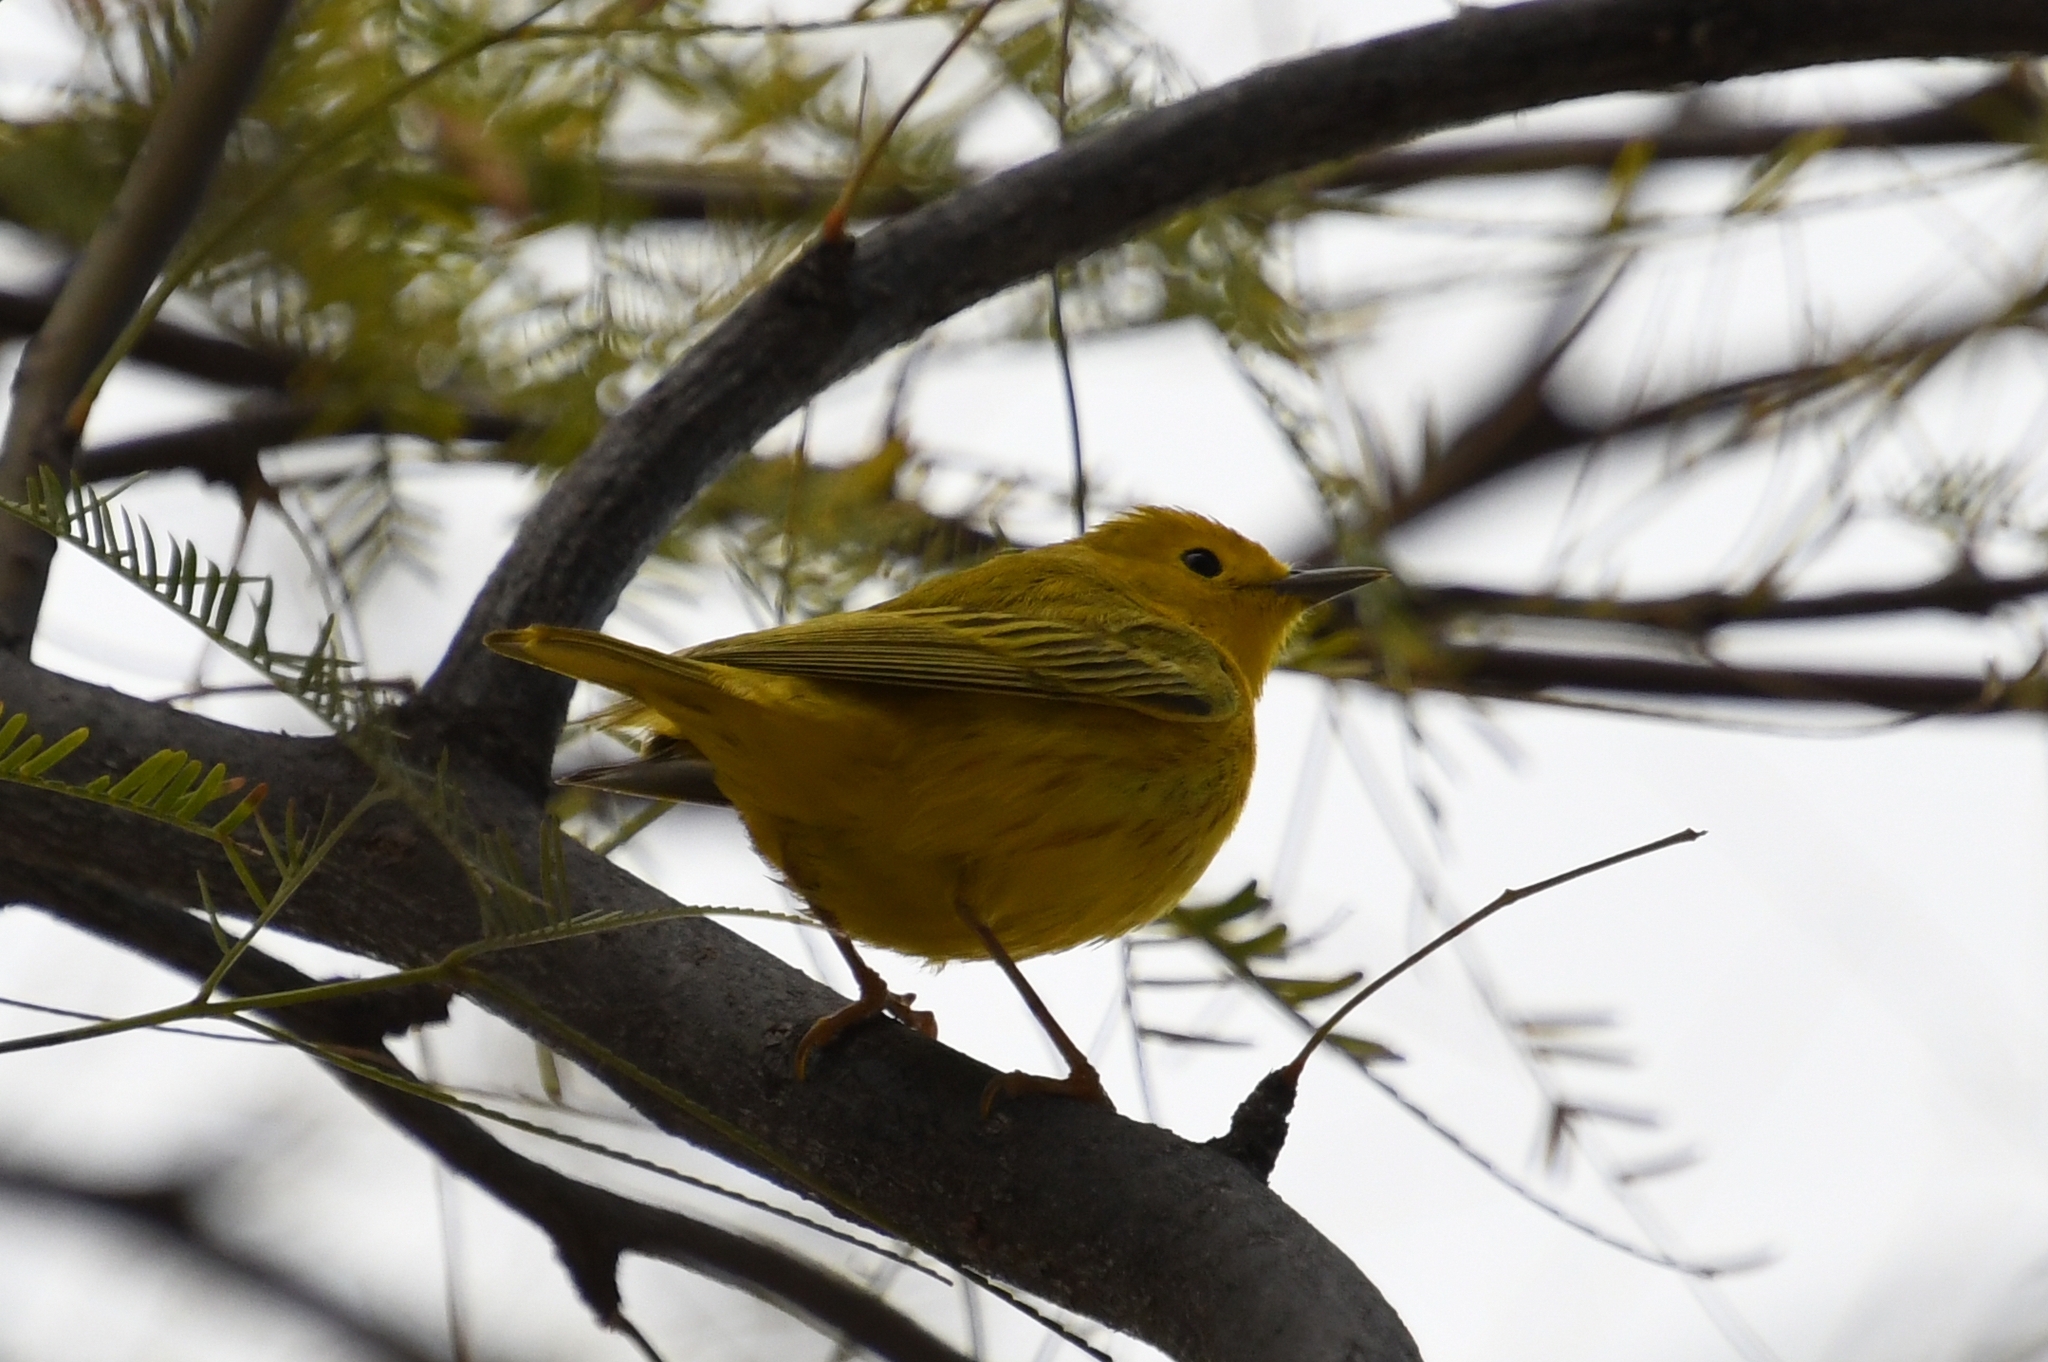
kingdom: Animalia
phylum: Chordata
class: Aves
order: Passeriformes
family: Parulidae
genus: Setophaga
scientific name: Setophaga petechia
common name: Yellow warbler
